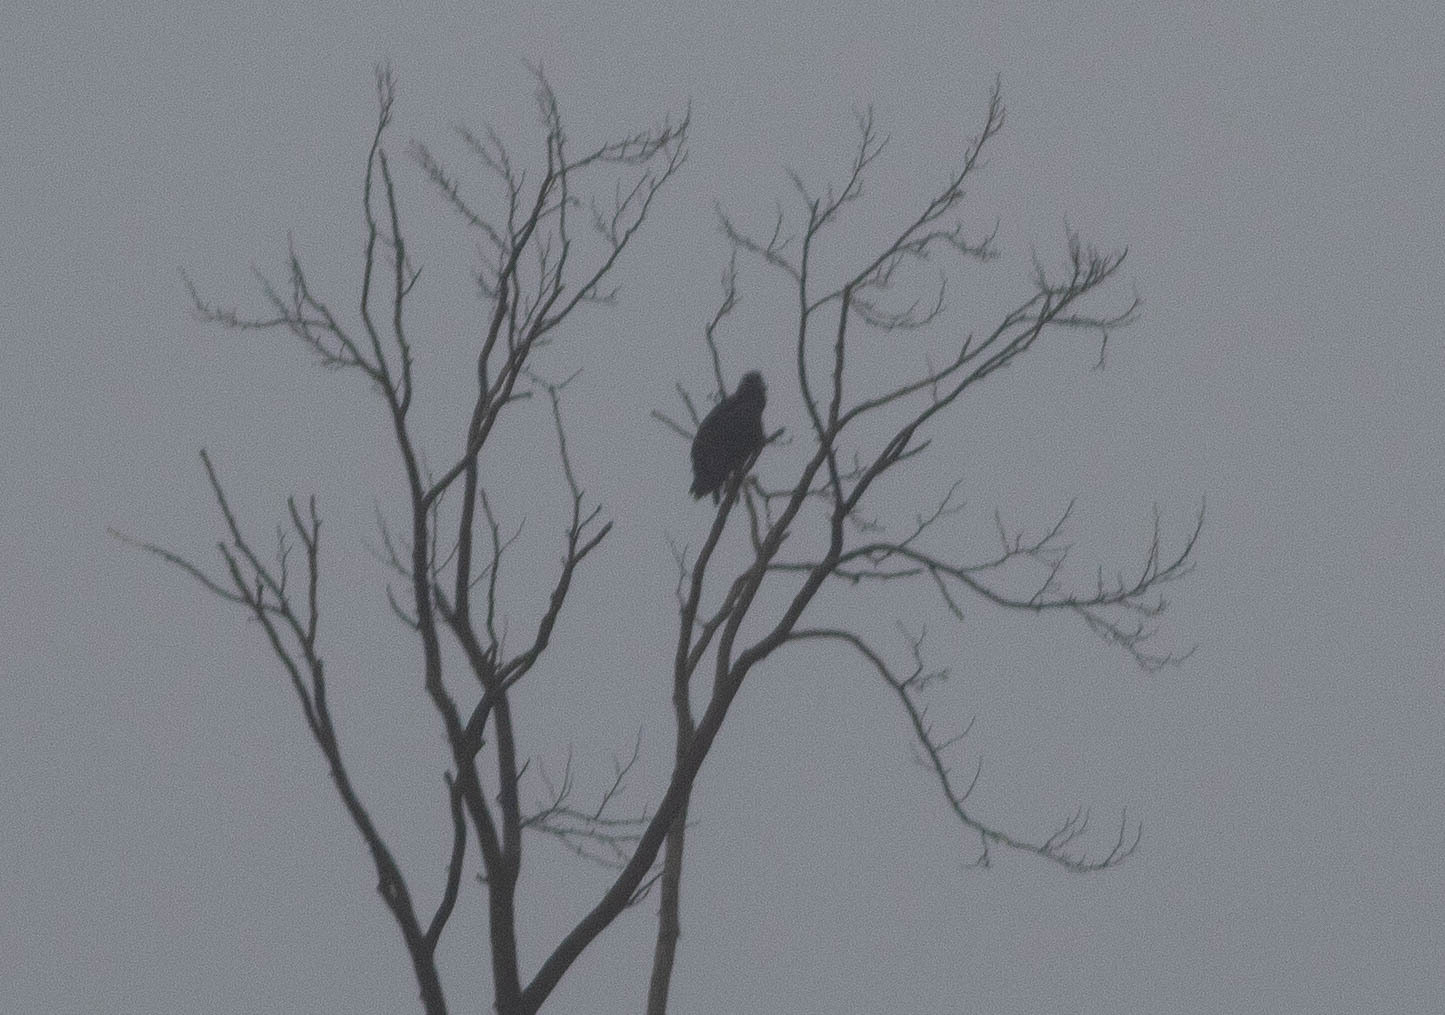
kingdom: Animalia
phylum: Chordata
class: Aves
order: Accipitriformes
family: Cathartidae
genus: Coragyps
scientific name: Coragyps atratus
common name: Black vulture
